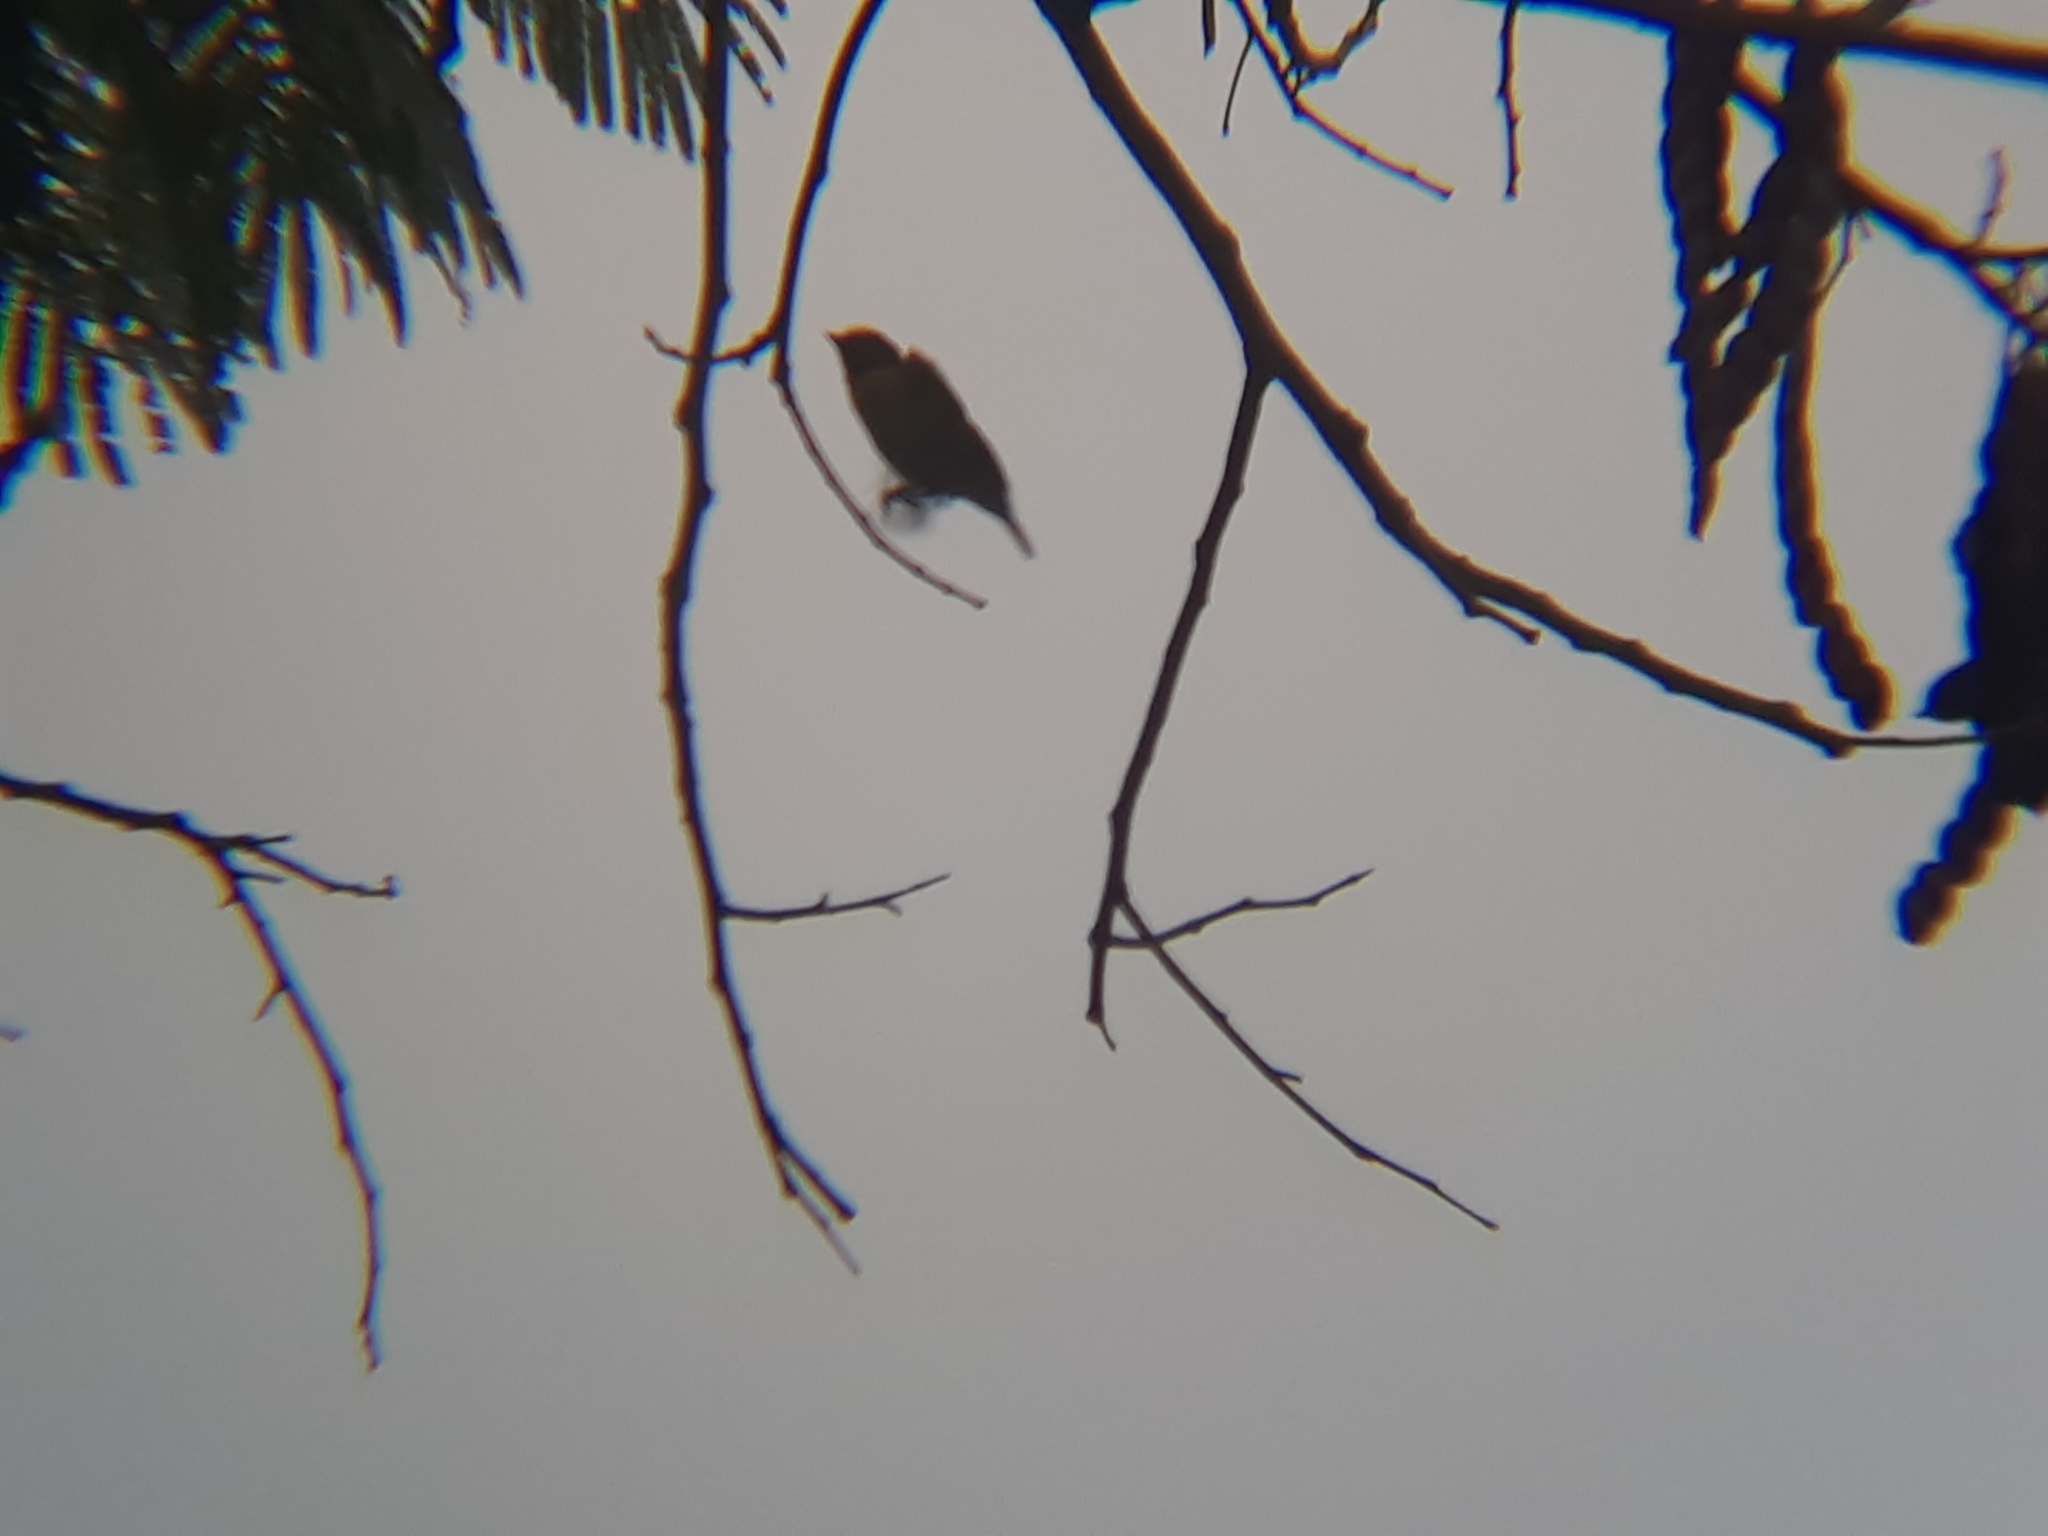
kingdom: Animalia
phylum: Chordata
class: Aves
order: Passeriformes
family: Fringillidae
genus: Euphonia
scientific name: Euphonia chlorotica
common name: Purple-throated euphonia
